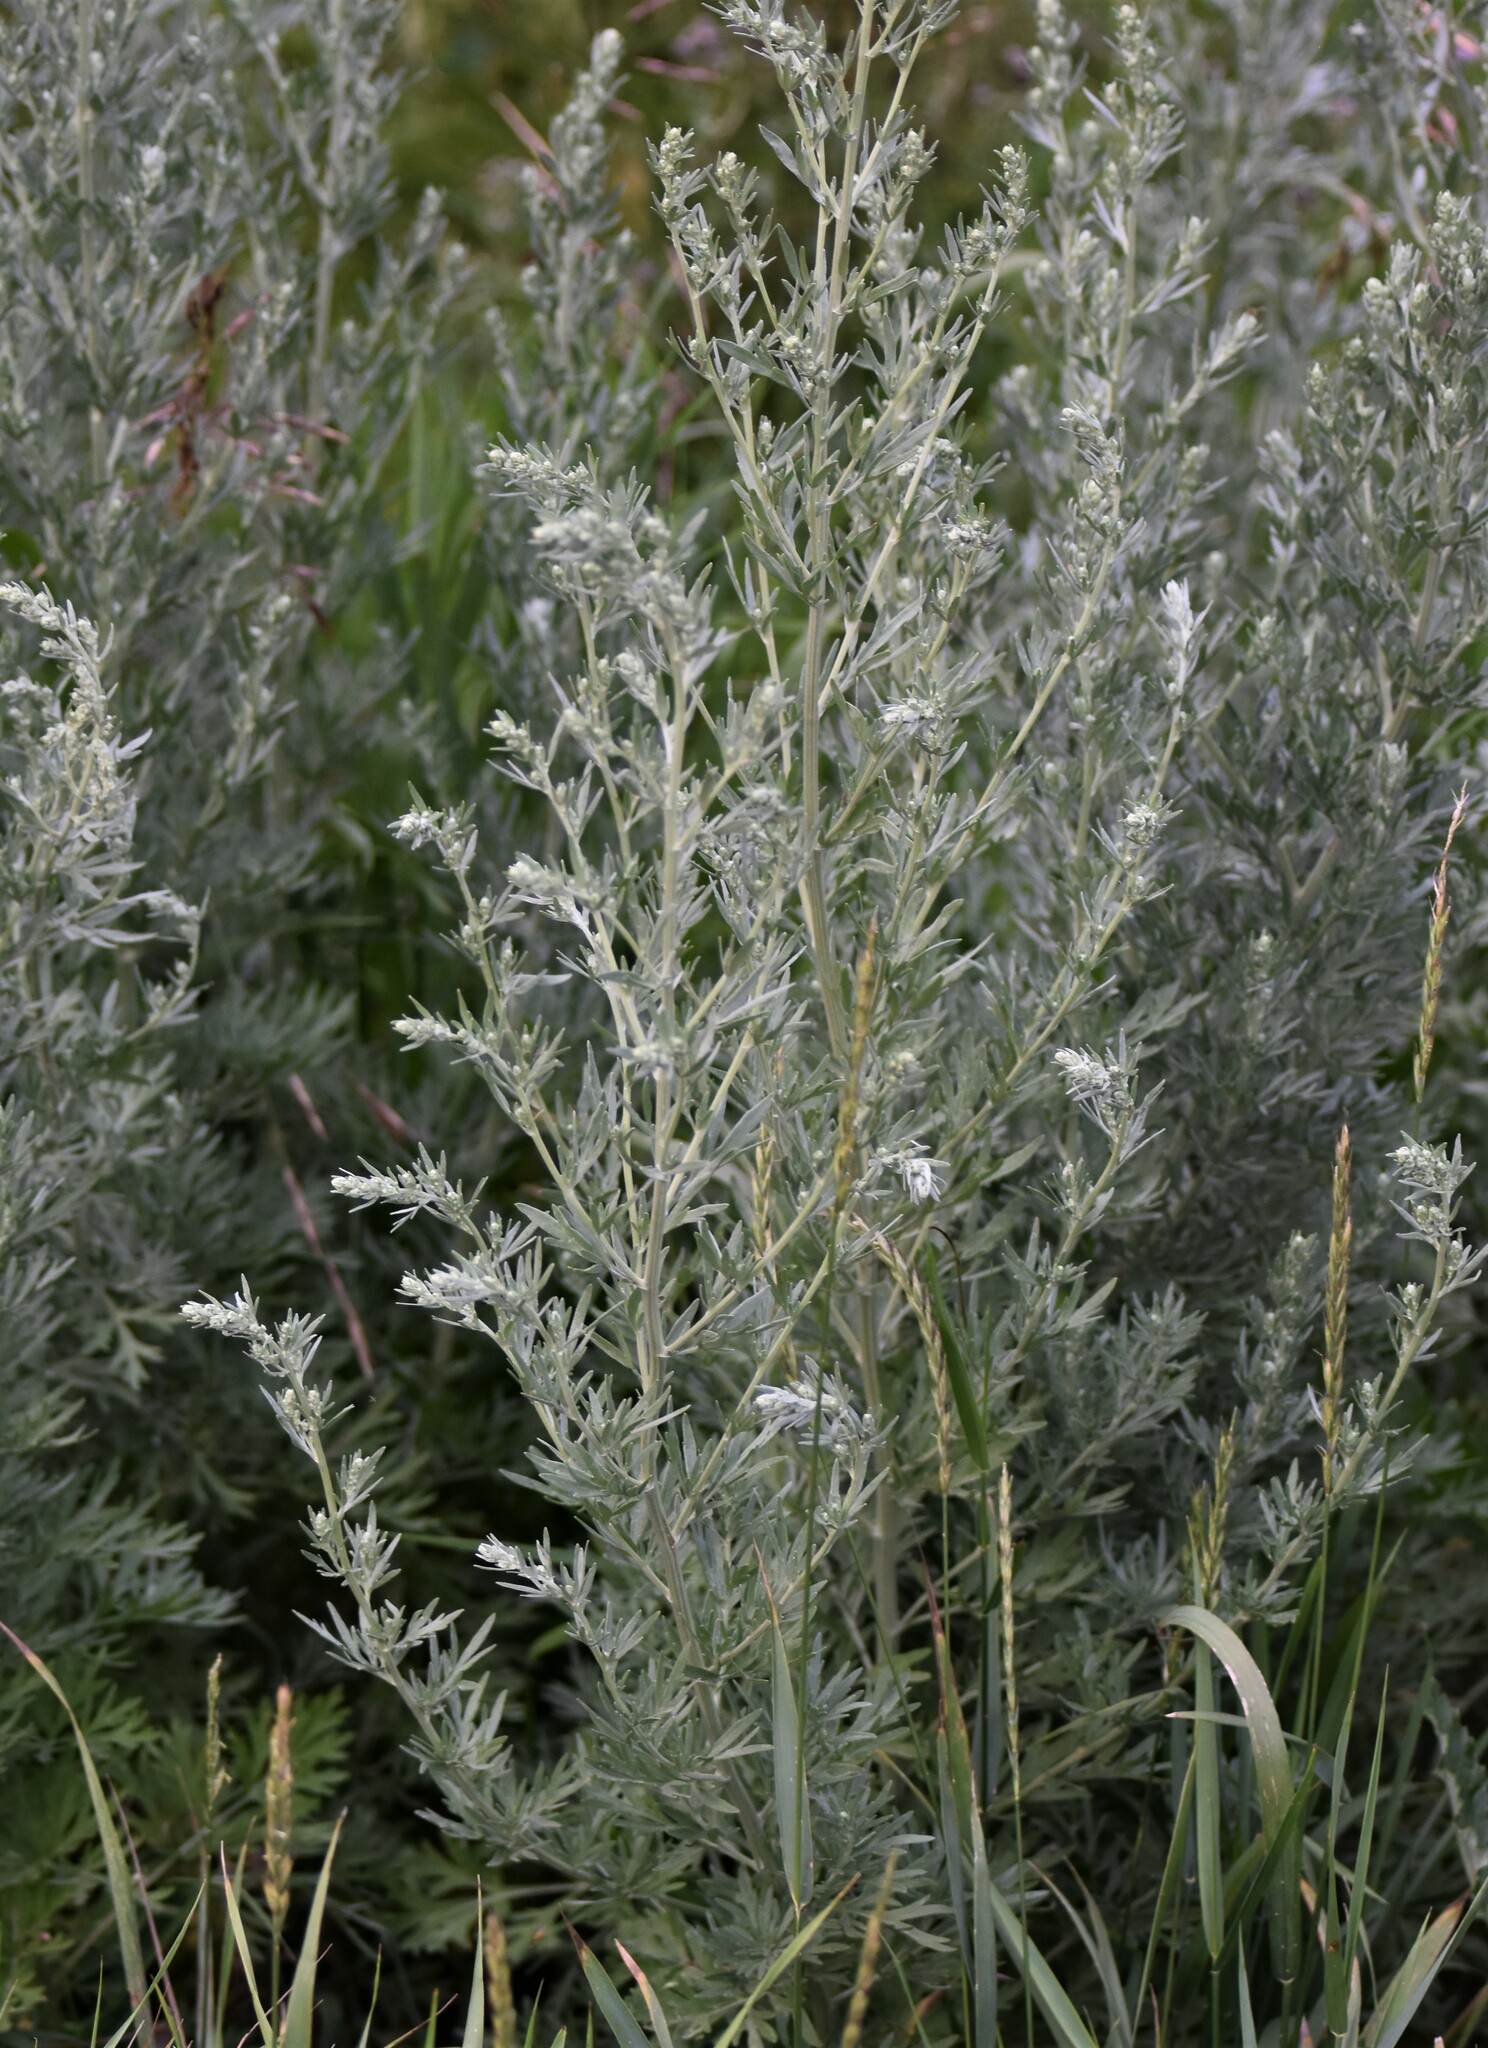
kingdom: Plantae
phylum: Tracheophyta
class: Magnoliopsida
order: Asterales
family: Asteraceae
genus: Artemisia
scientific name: Artemisia absinthium
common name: Wormwood
